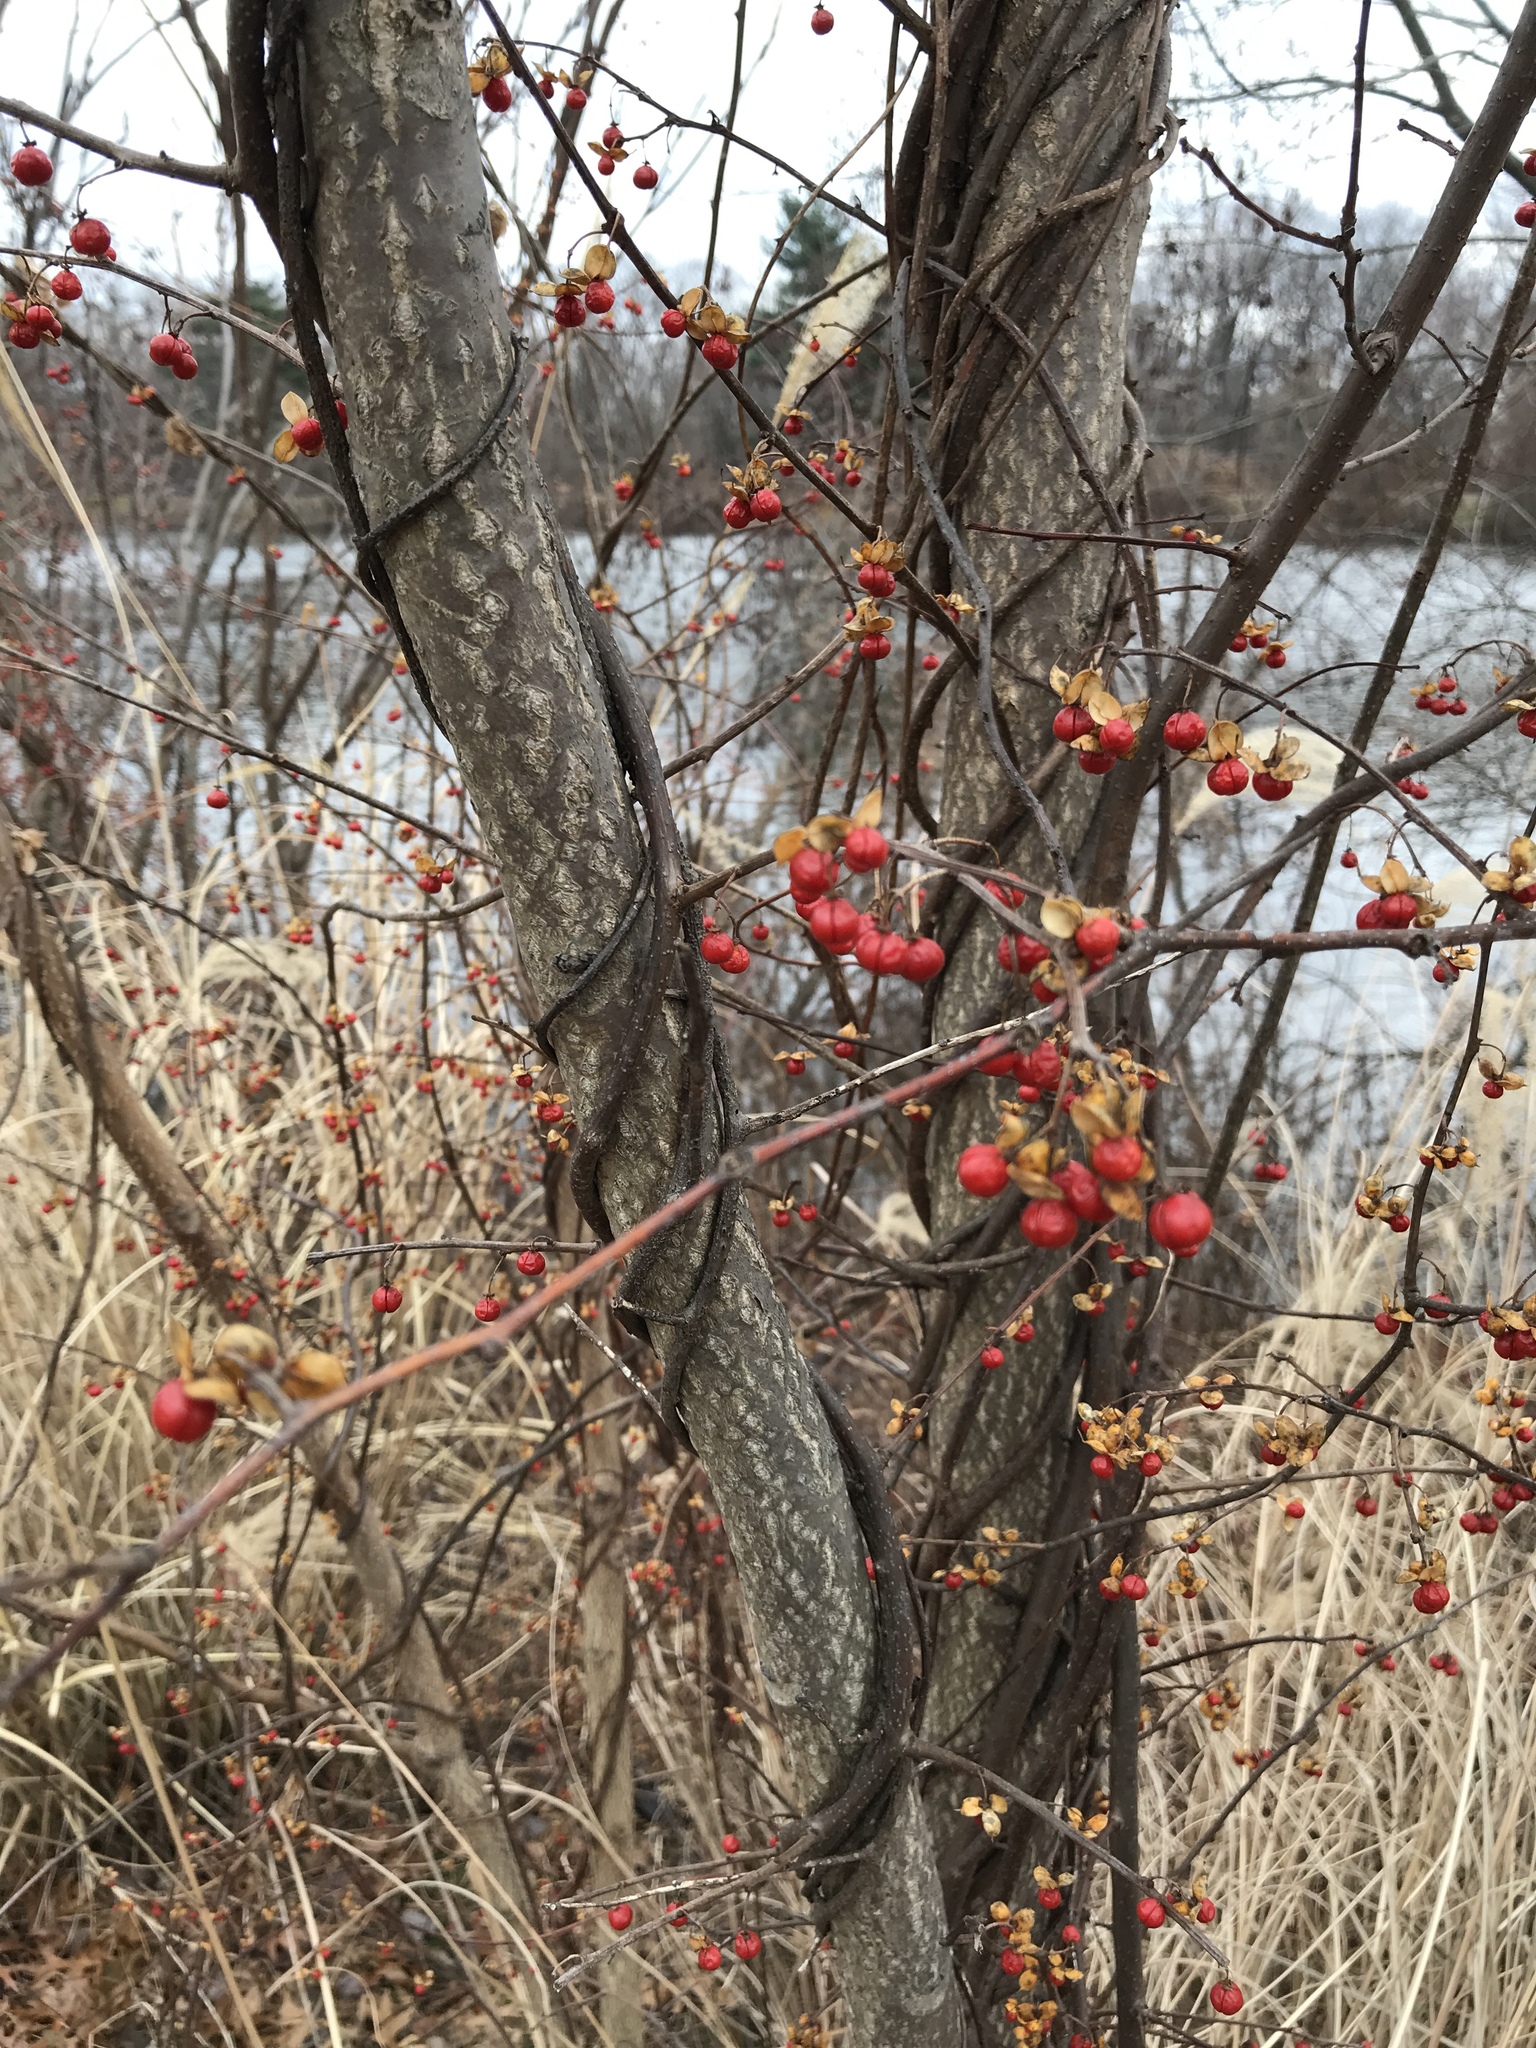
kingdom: Plantae
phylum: Tracheophyta
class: Magnoliopsida
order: Celastrales
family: Celastraceae
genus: Celastrus
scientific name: Celastrus orbiculatus
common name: Oriental bittersweet
